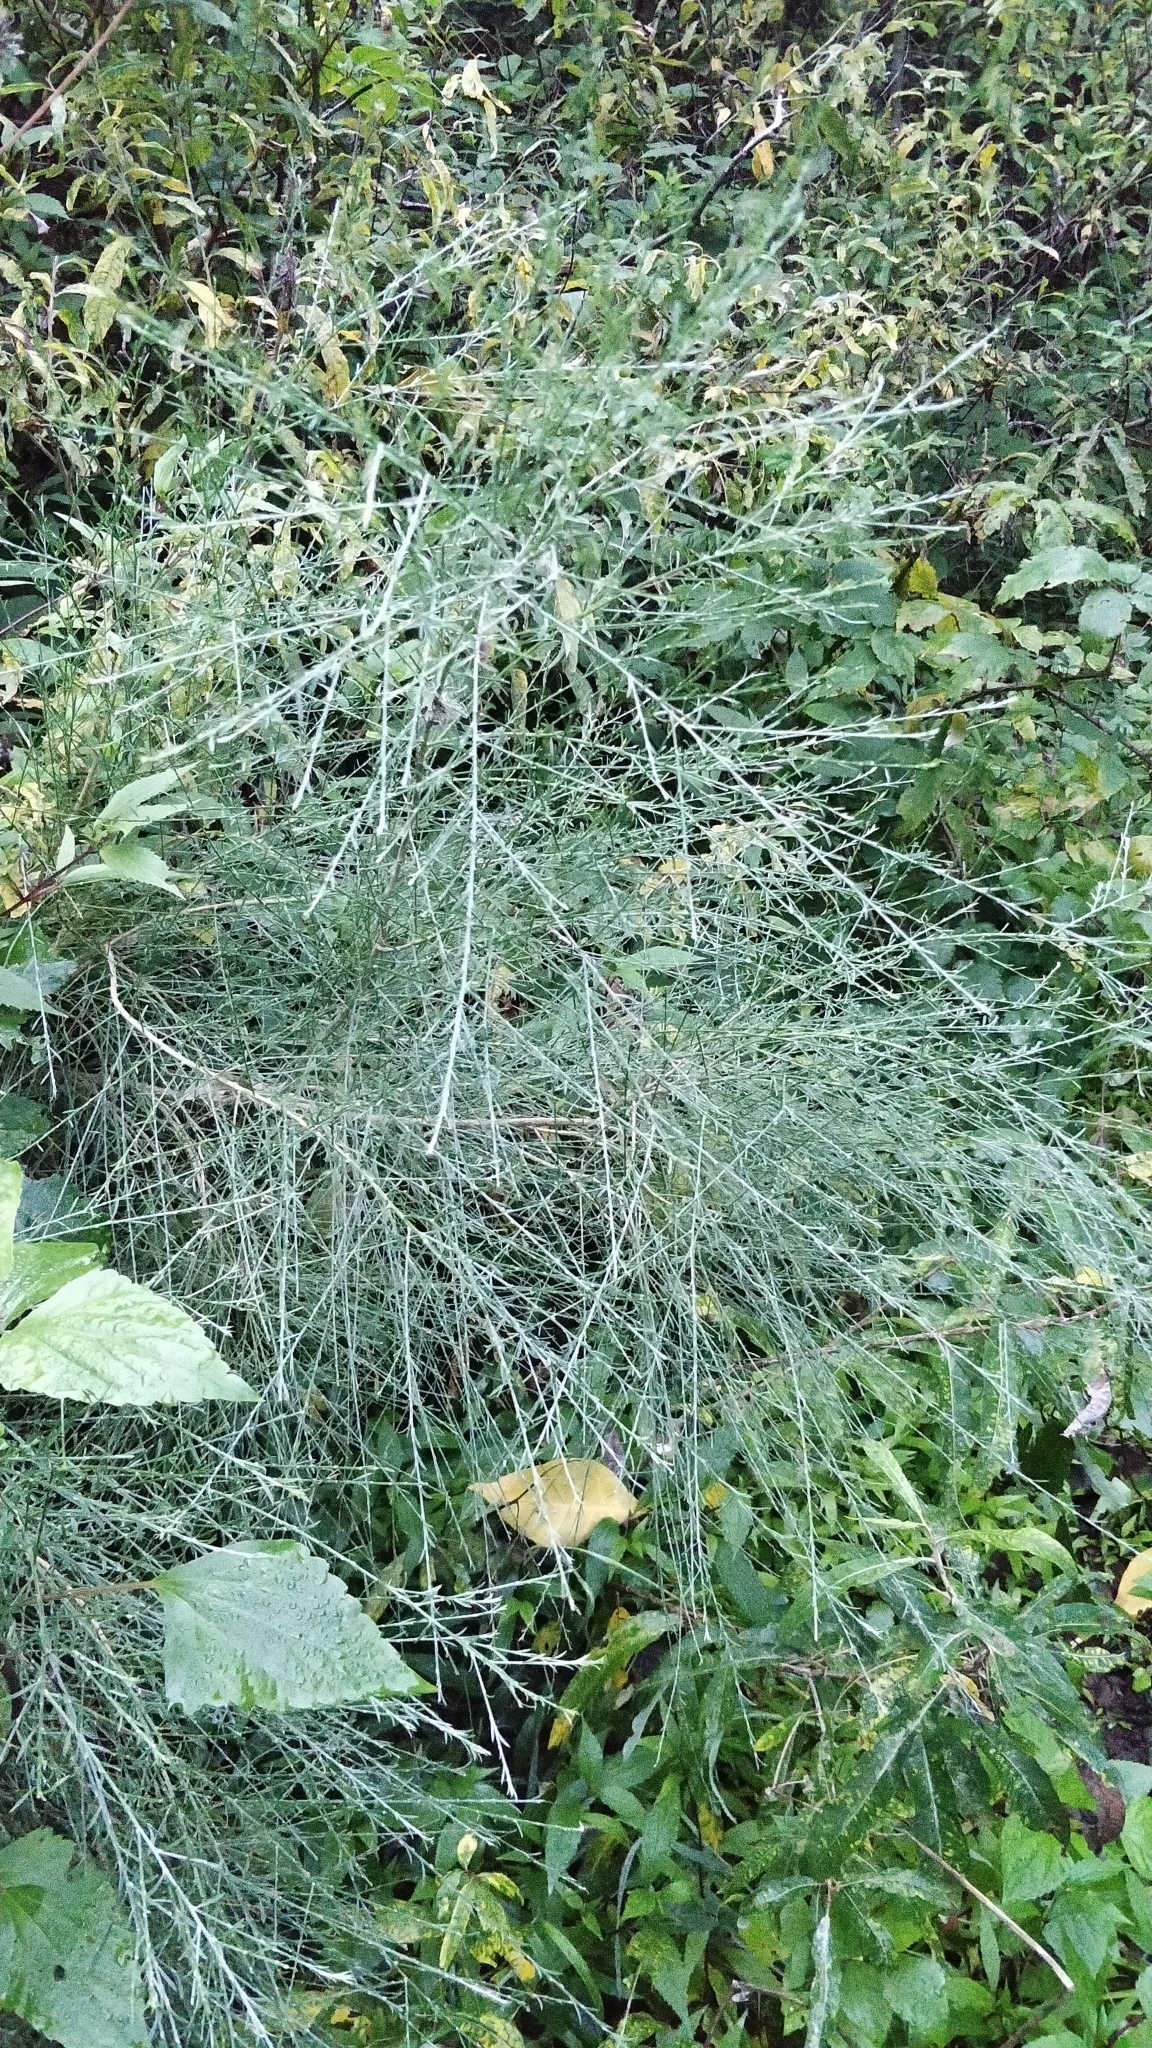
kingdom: Plantae
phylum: Tracheophyta
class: Magnoliopsida
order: Fabales
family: Fabaceae
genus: Genista
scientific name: Genista tenera
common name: Madeira broom
